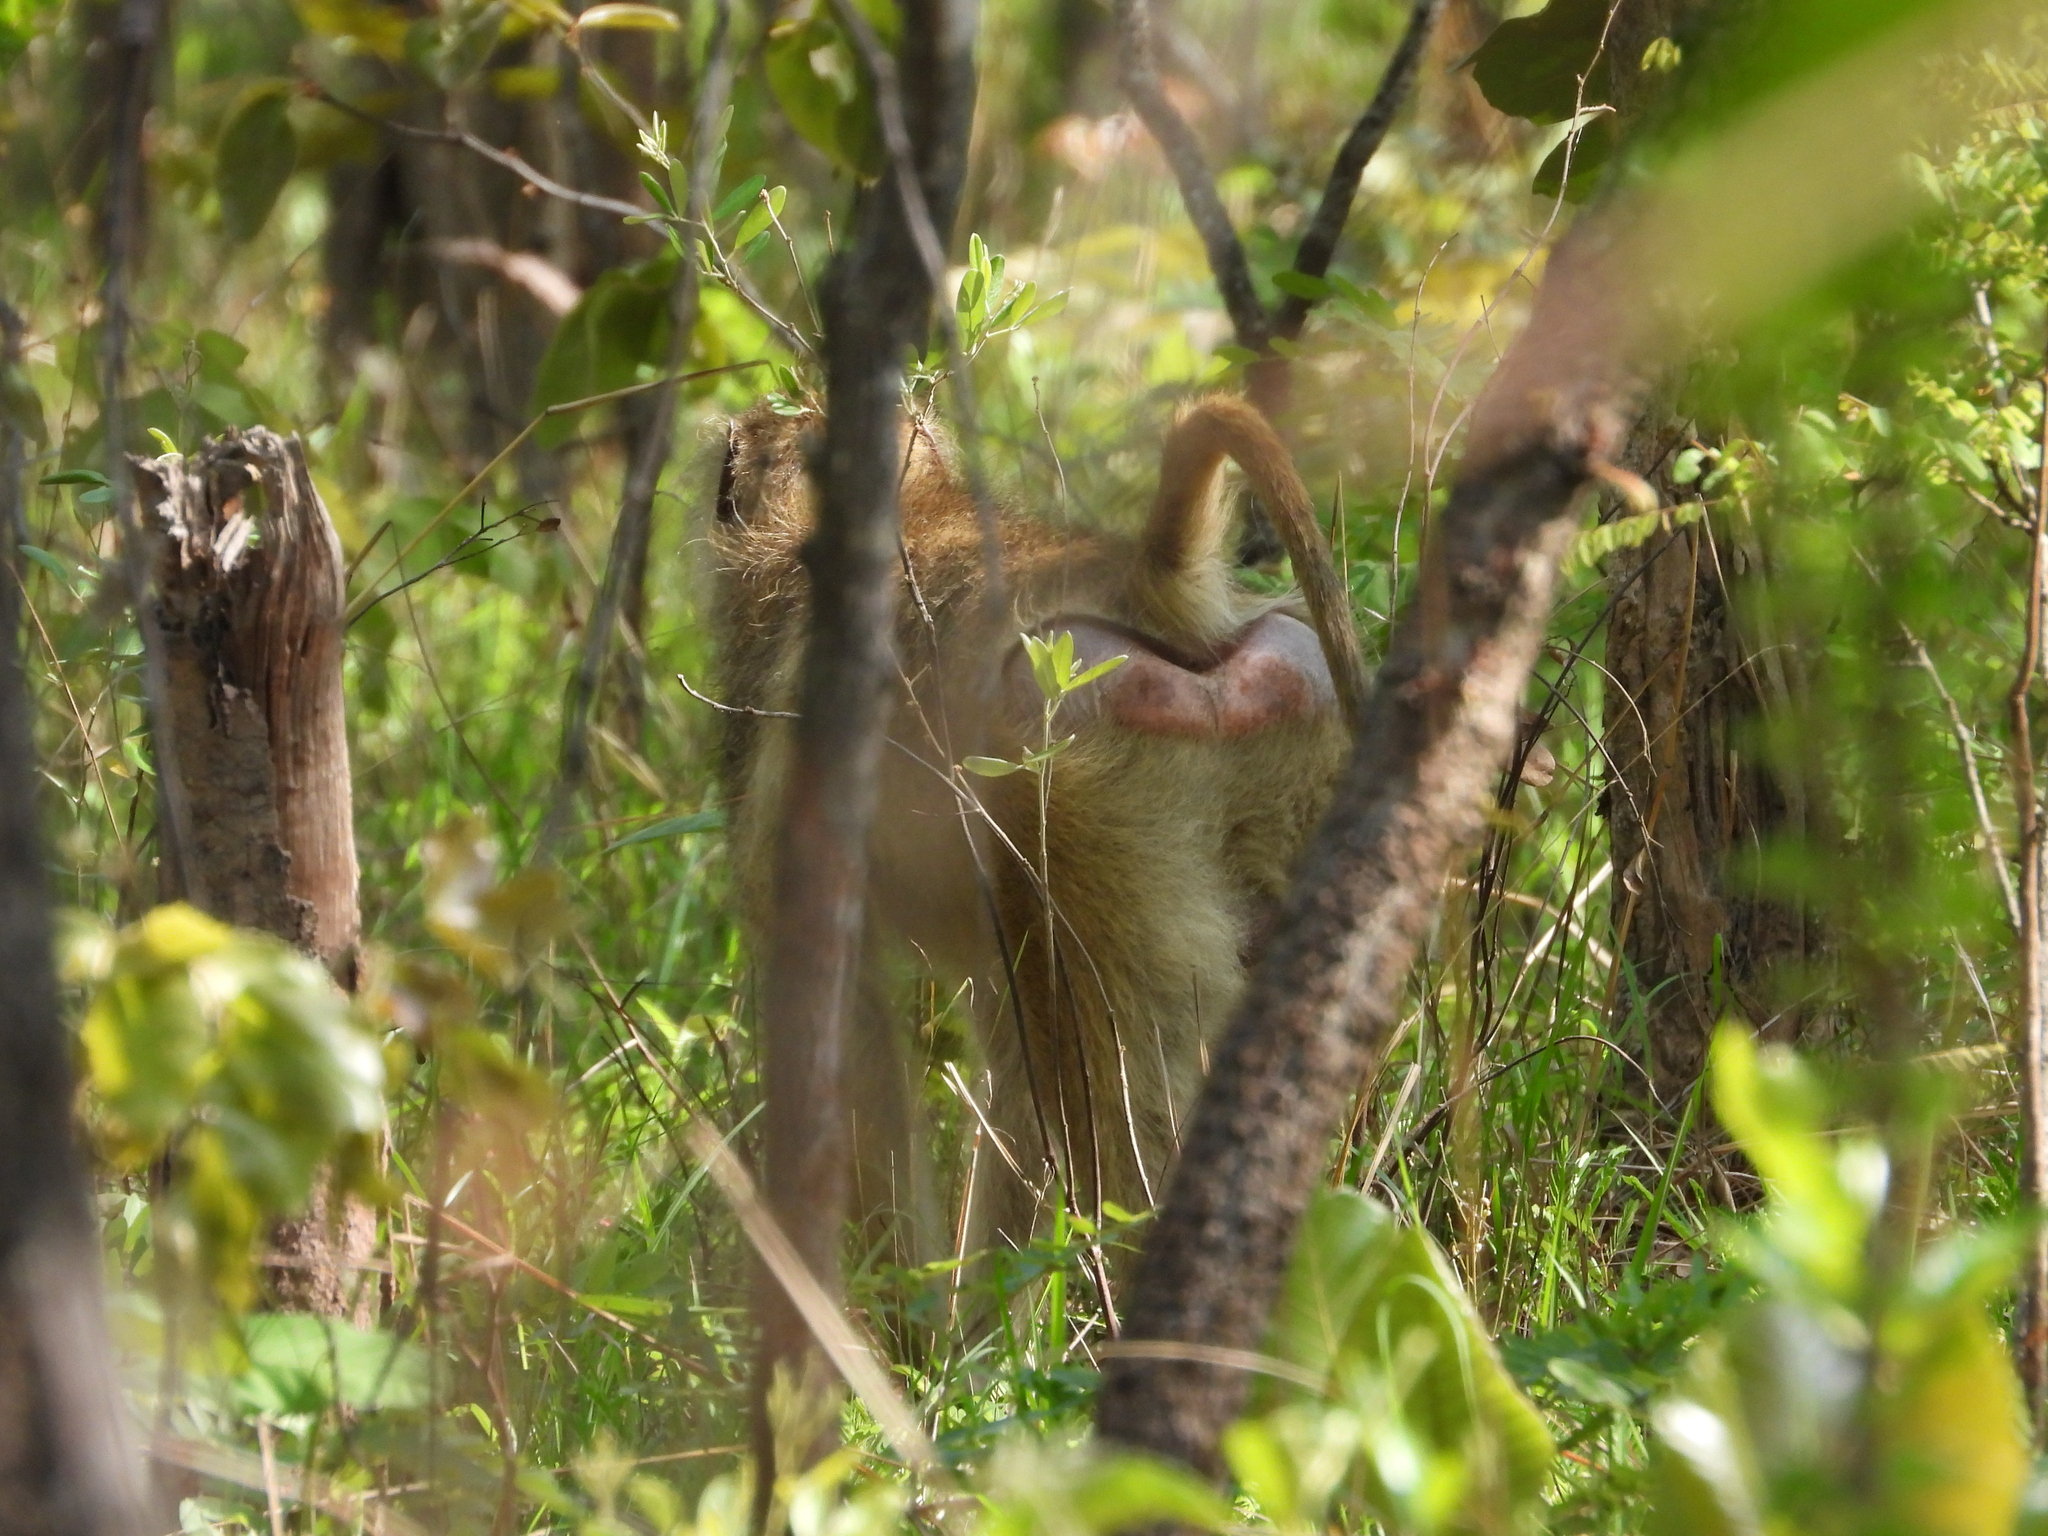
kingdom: Animalia
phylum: Chordata
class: Mammalia
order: Primates
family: Cercopithecidae
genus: Papio
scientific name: Papio kindae
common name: Kinda baboon
